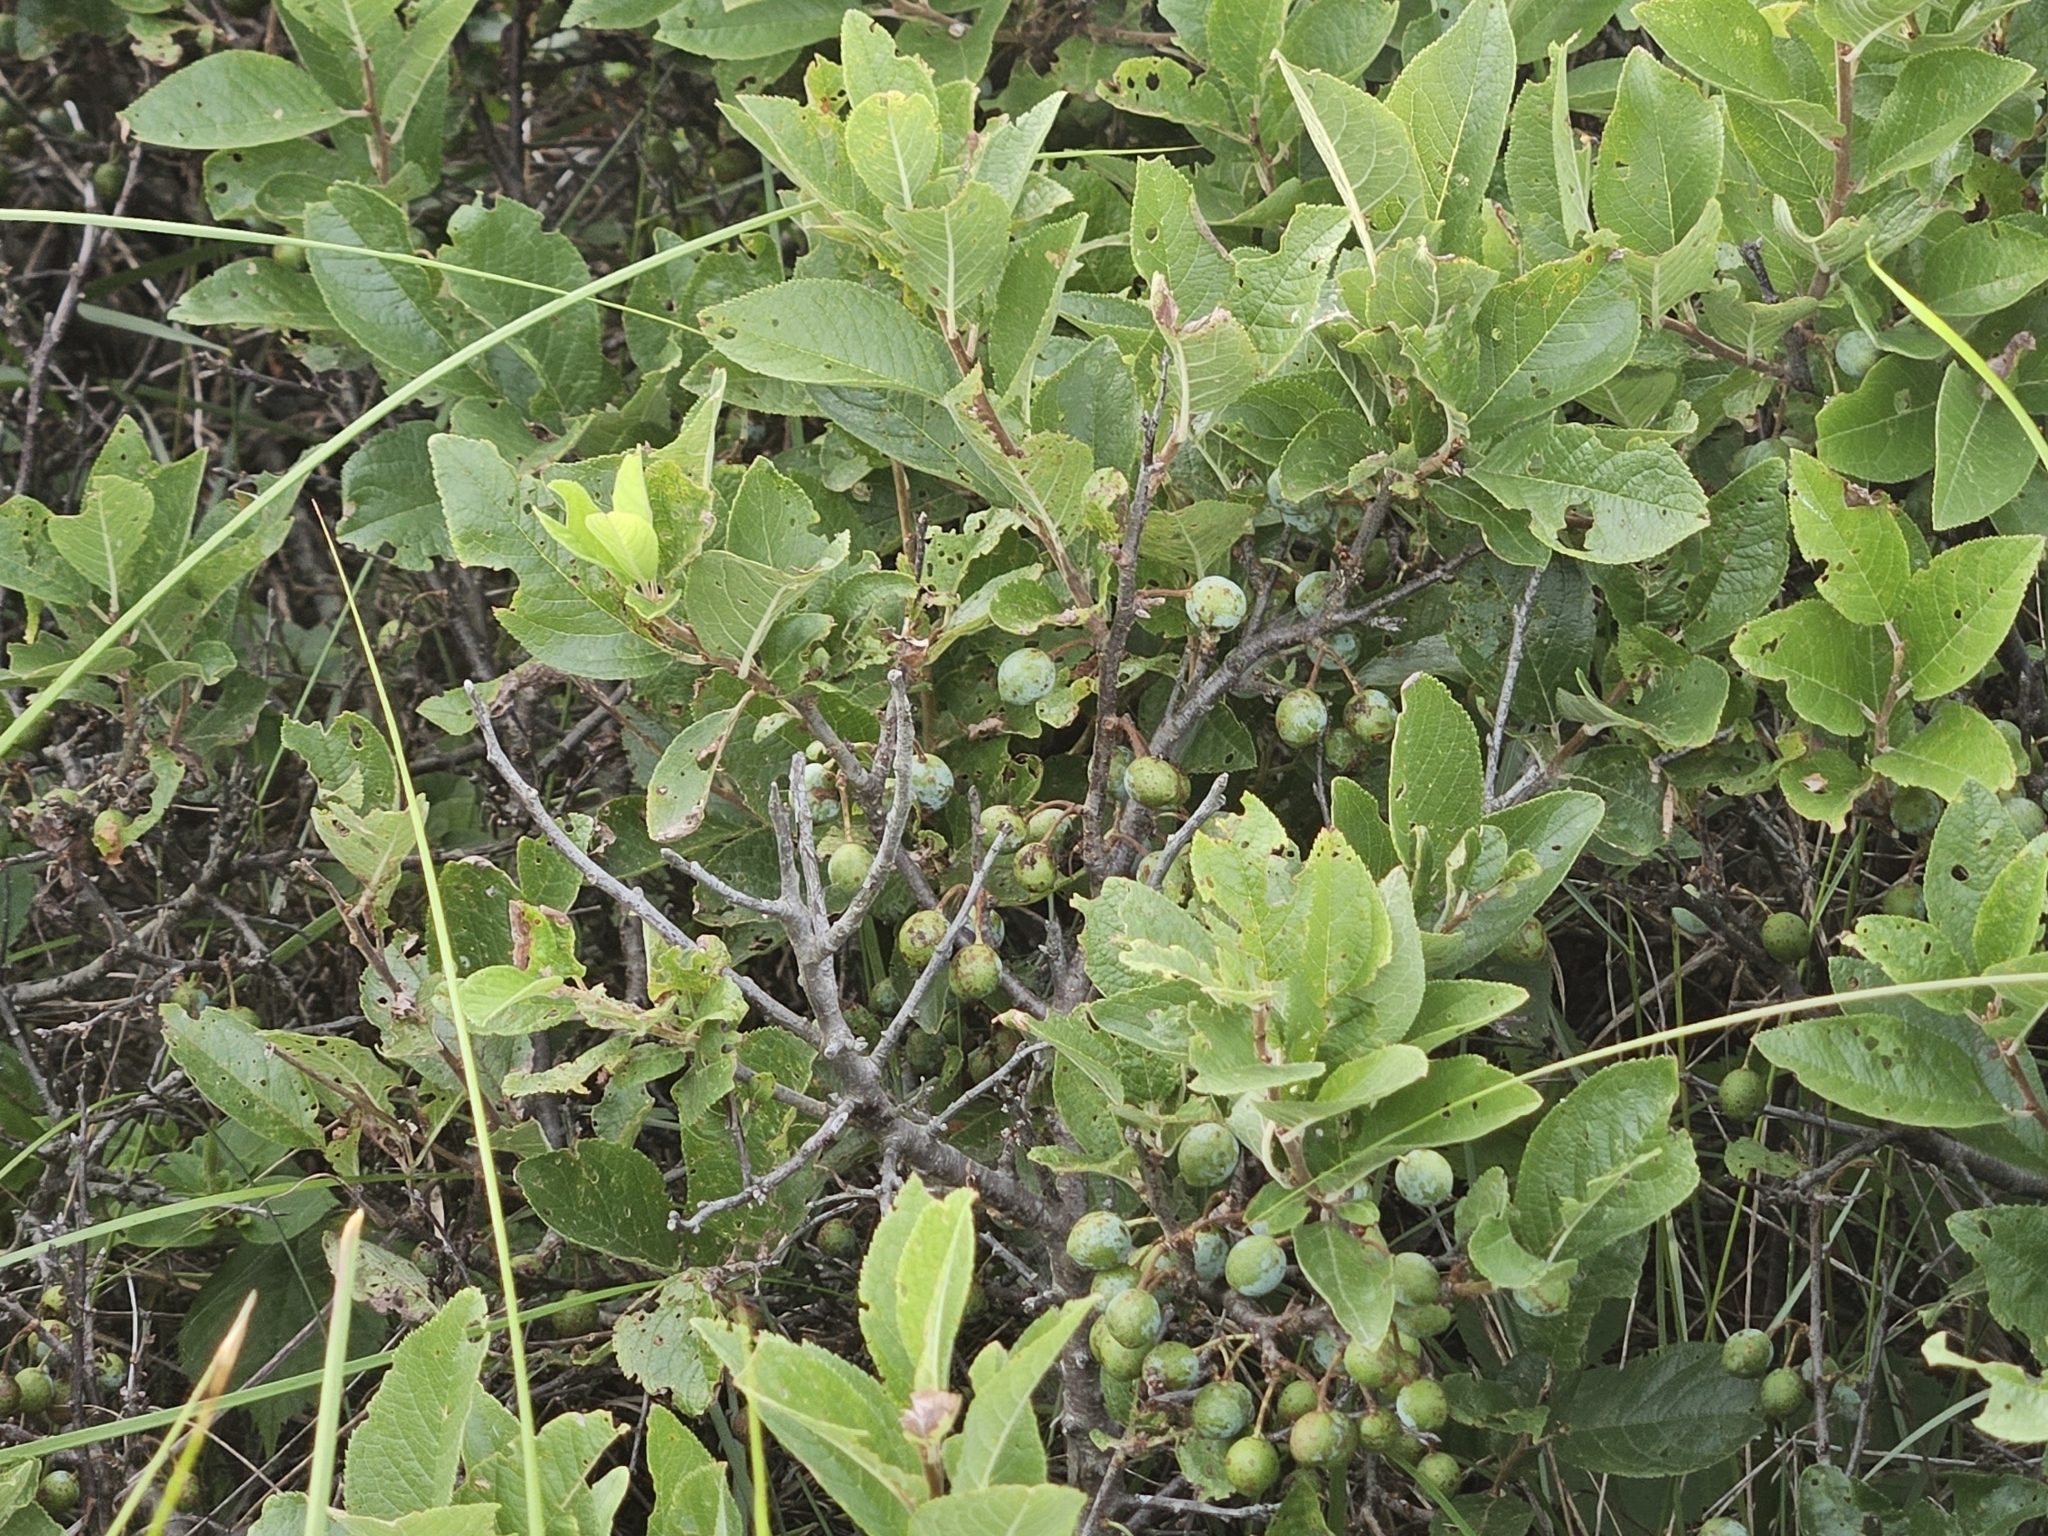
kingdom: Plantae
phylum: Tracheophyta
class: Magnoliopsida
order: Rosales
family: Rosaceae
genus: Prunus
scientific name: Prunus maritima
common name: Beach plum
